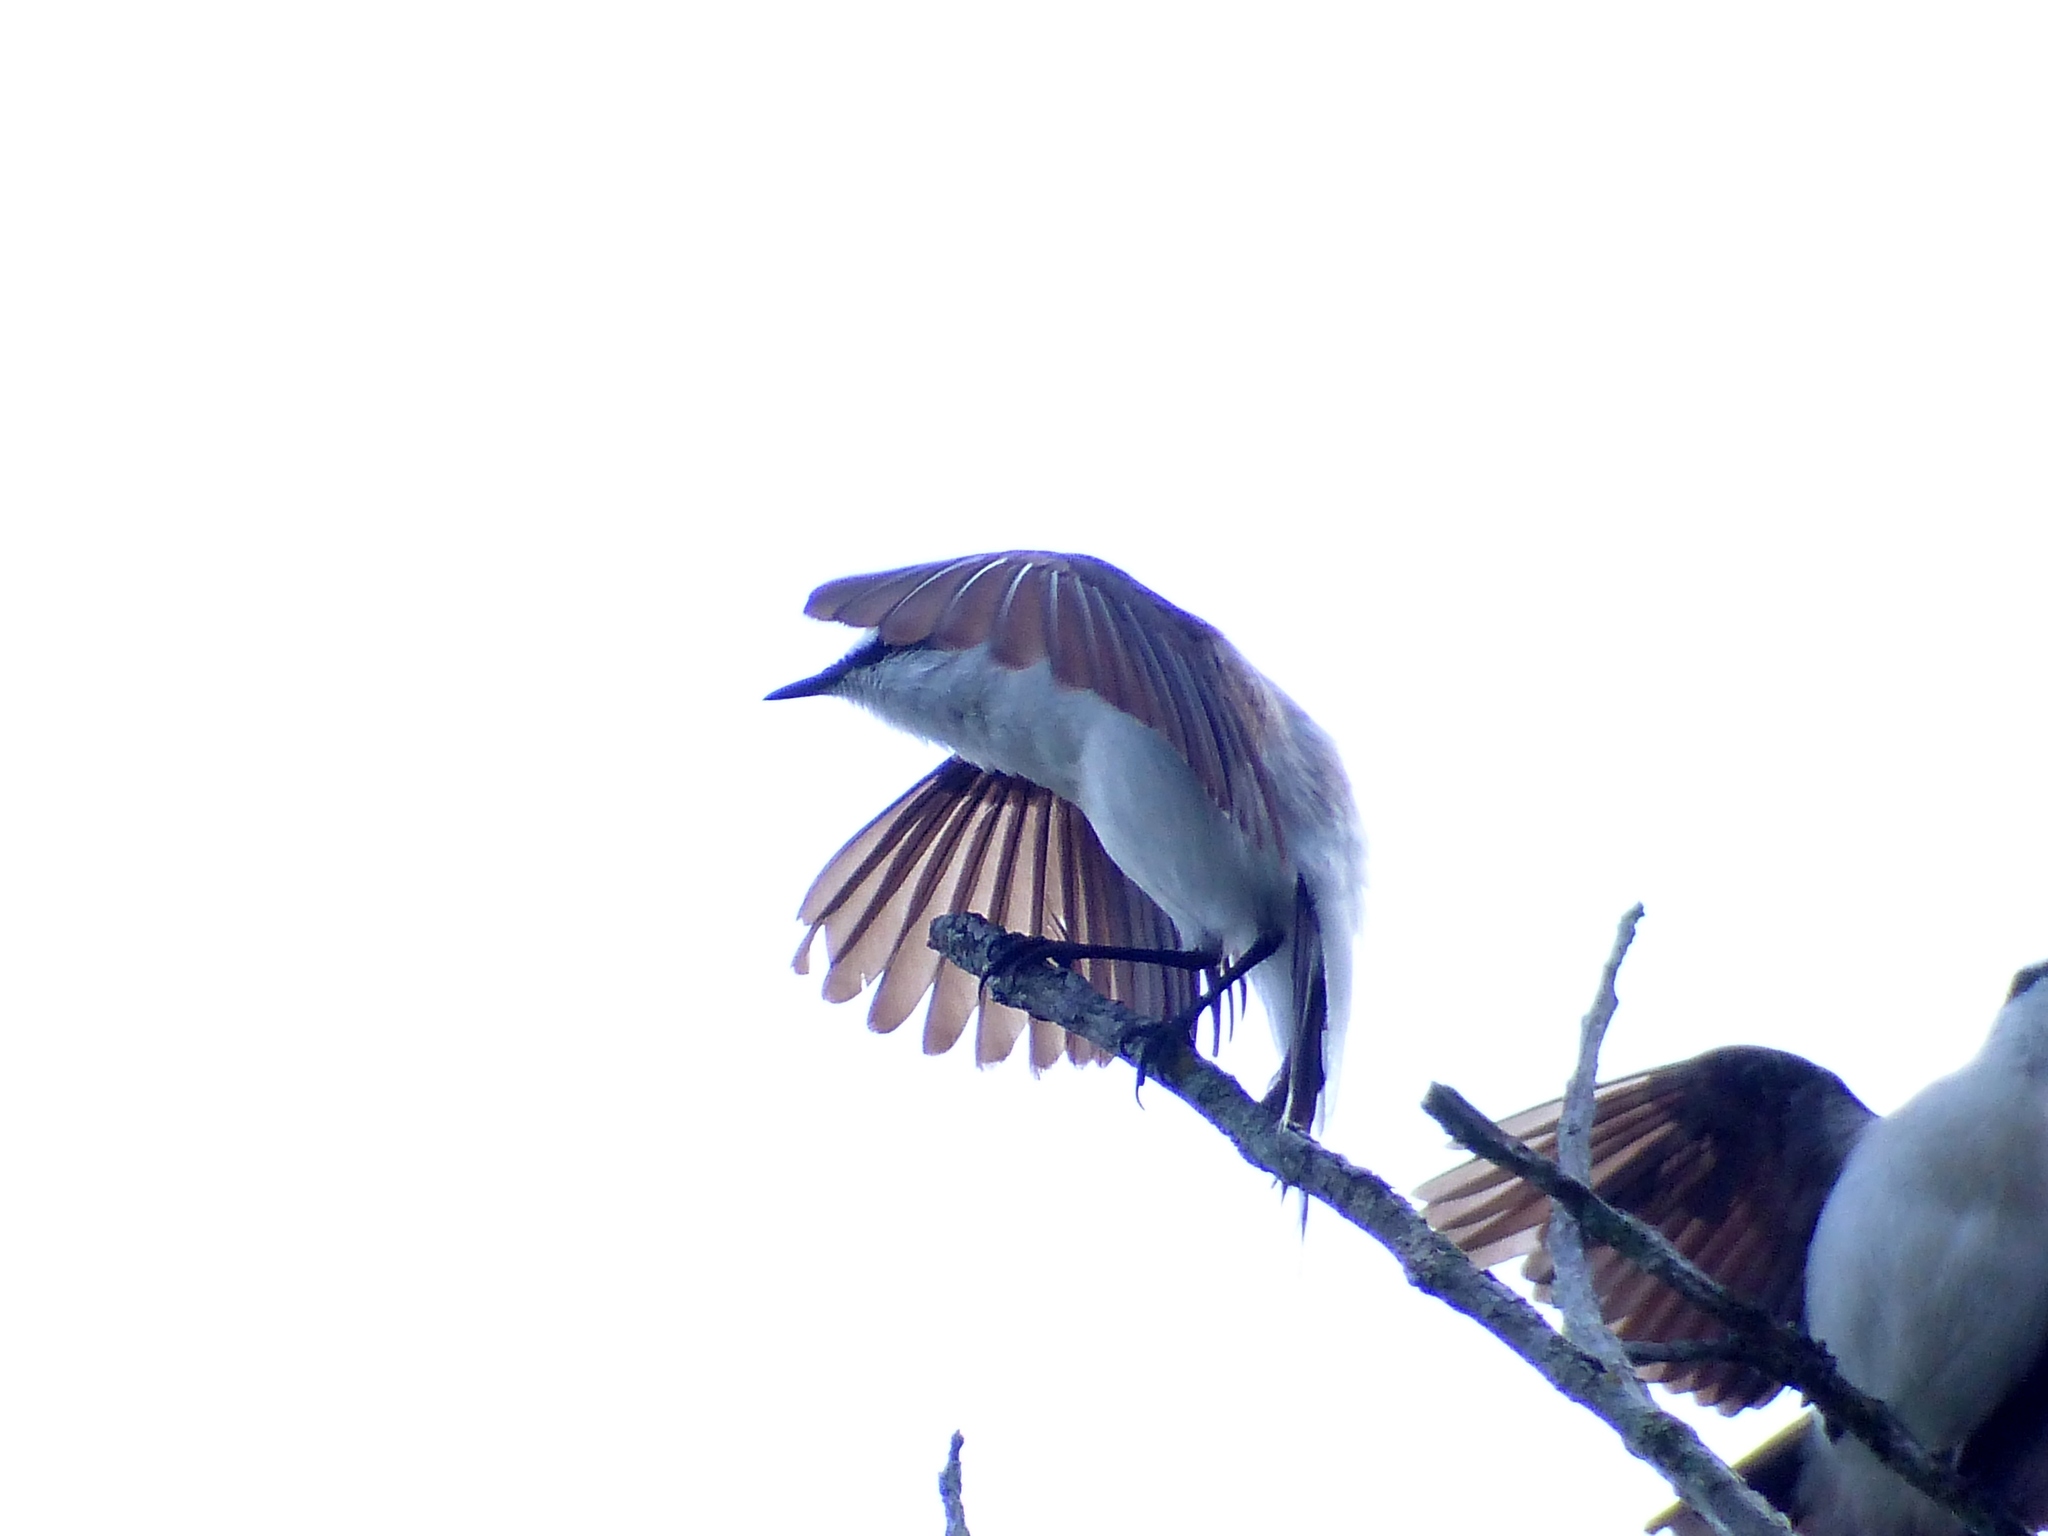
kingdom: Animalia
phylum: Chordata
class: Aves
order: Passeriformes
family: Tyrannidae
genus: Fluvicola
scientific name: Fluvicola nengeta
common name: Masked water tyrant
